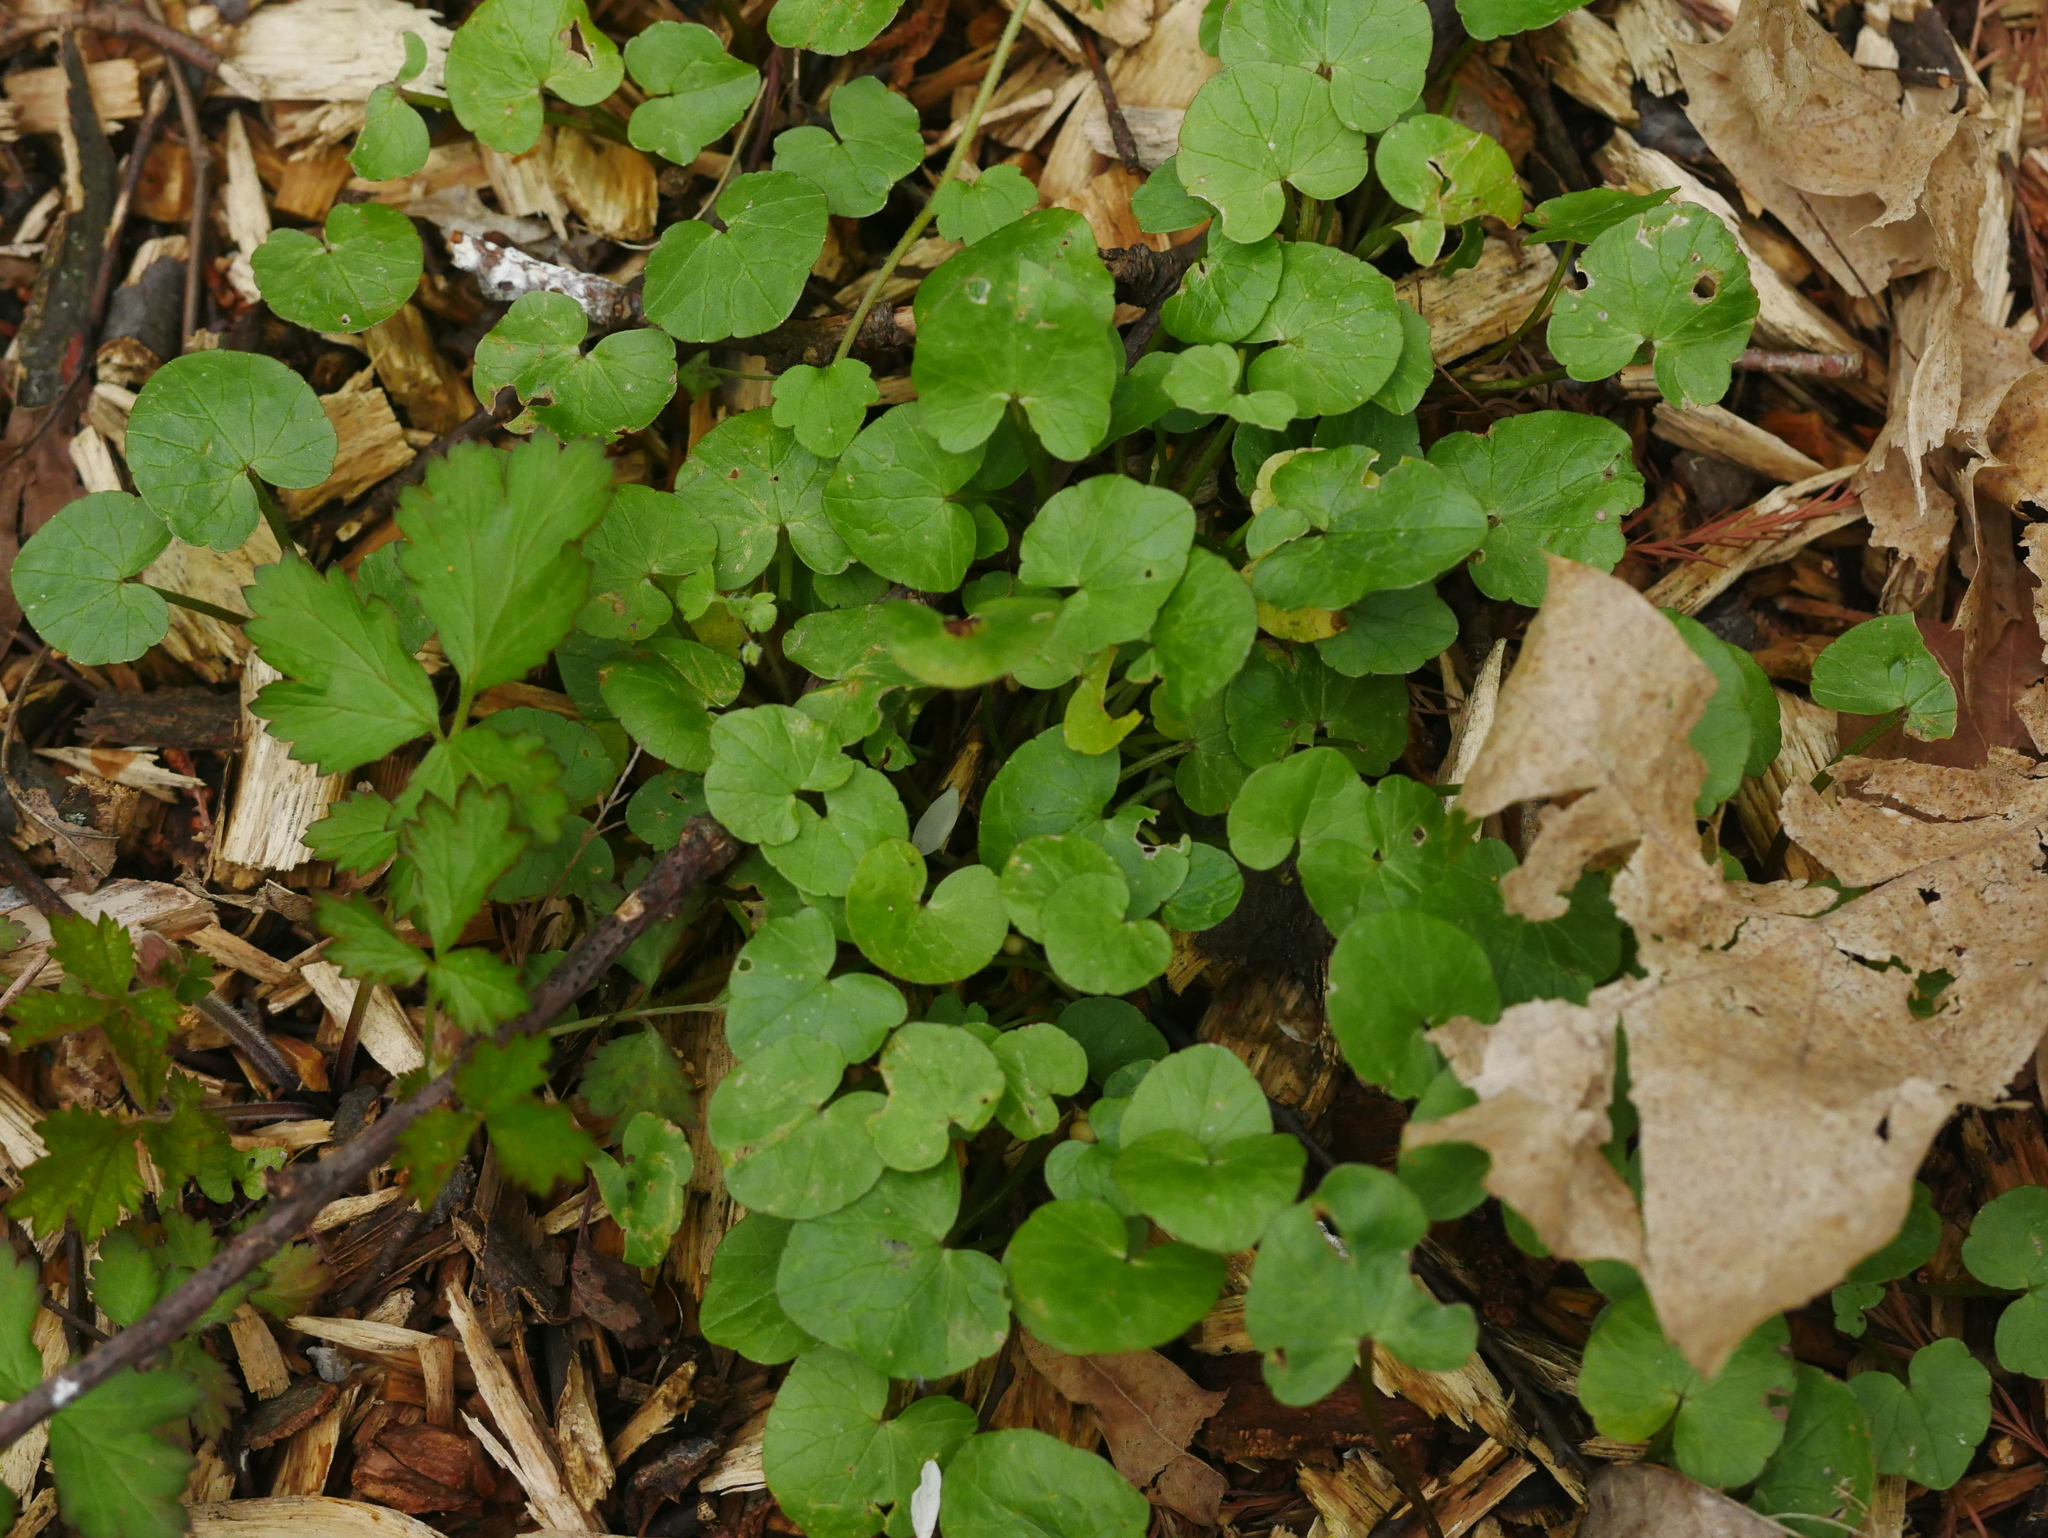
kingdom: Plantae
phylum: Tracheophyta
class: Magnoliopsida
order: Ranunculales
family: Ranunculaceae
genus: Ficaria
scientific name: Ficaria verna
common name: Lesser celandine
